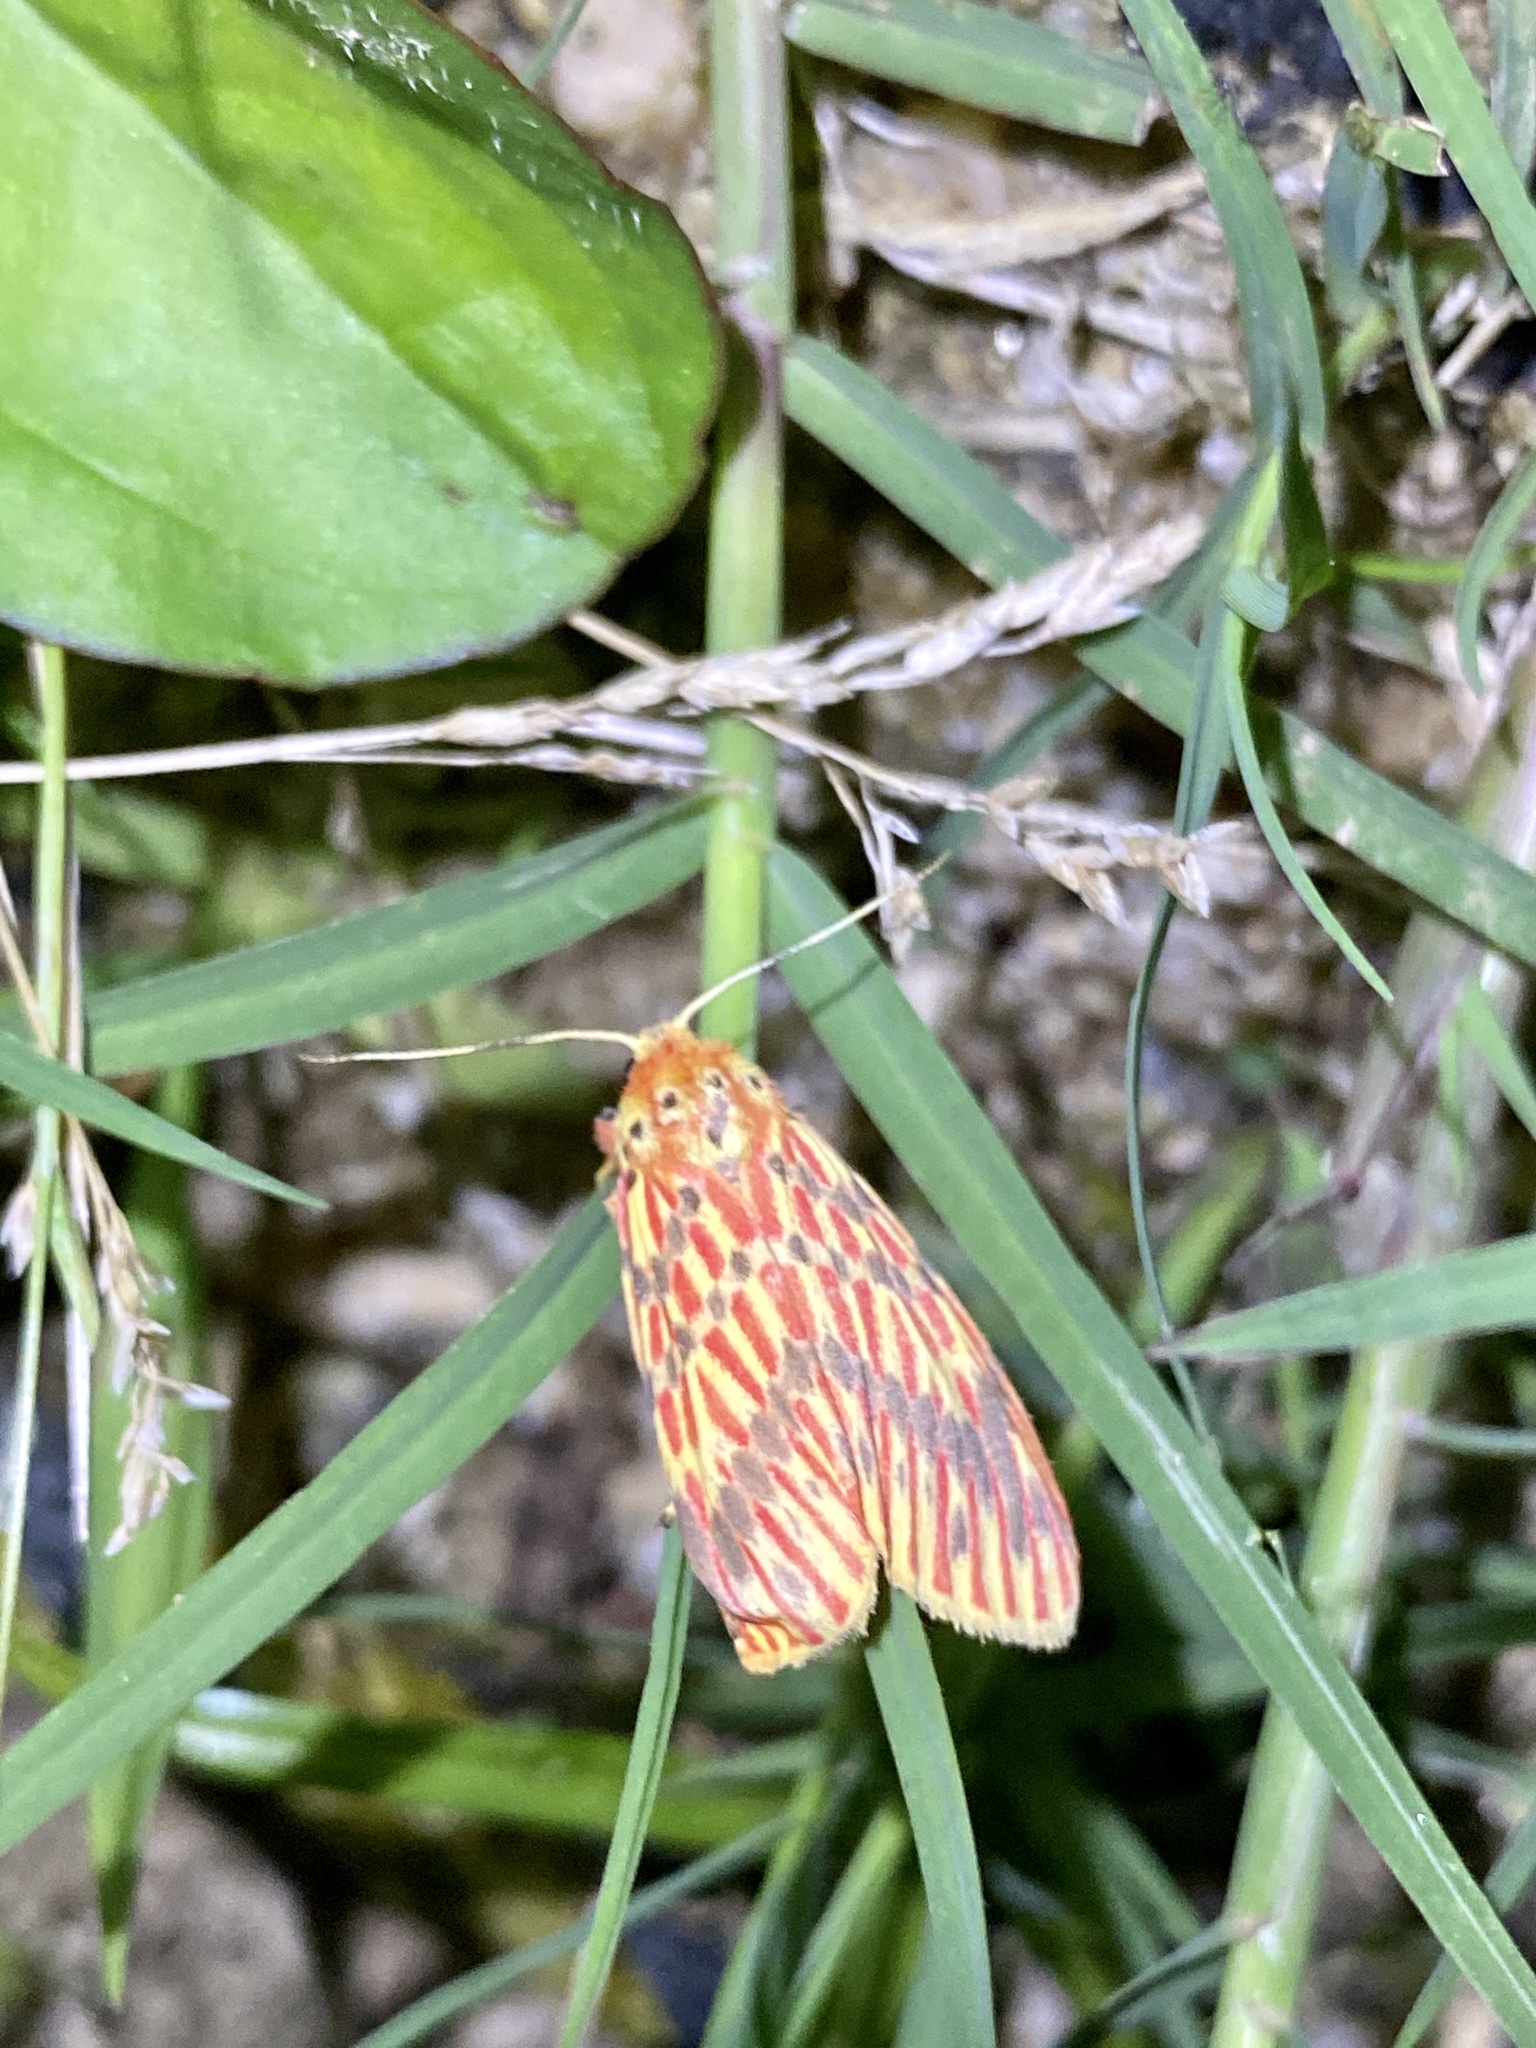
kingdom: Animalia
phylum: Arthropoda
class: Insecta
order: Lepidoptera
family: Erebidae
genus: Barsine
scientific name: Barsine striata
